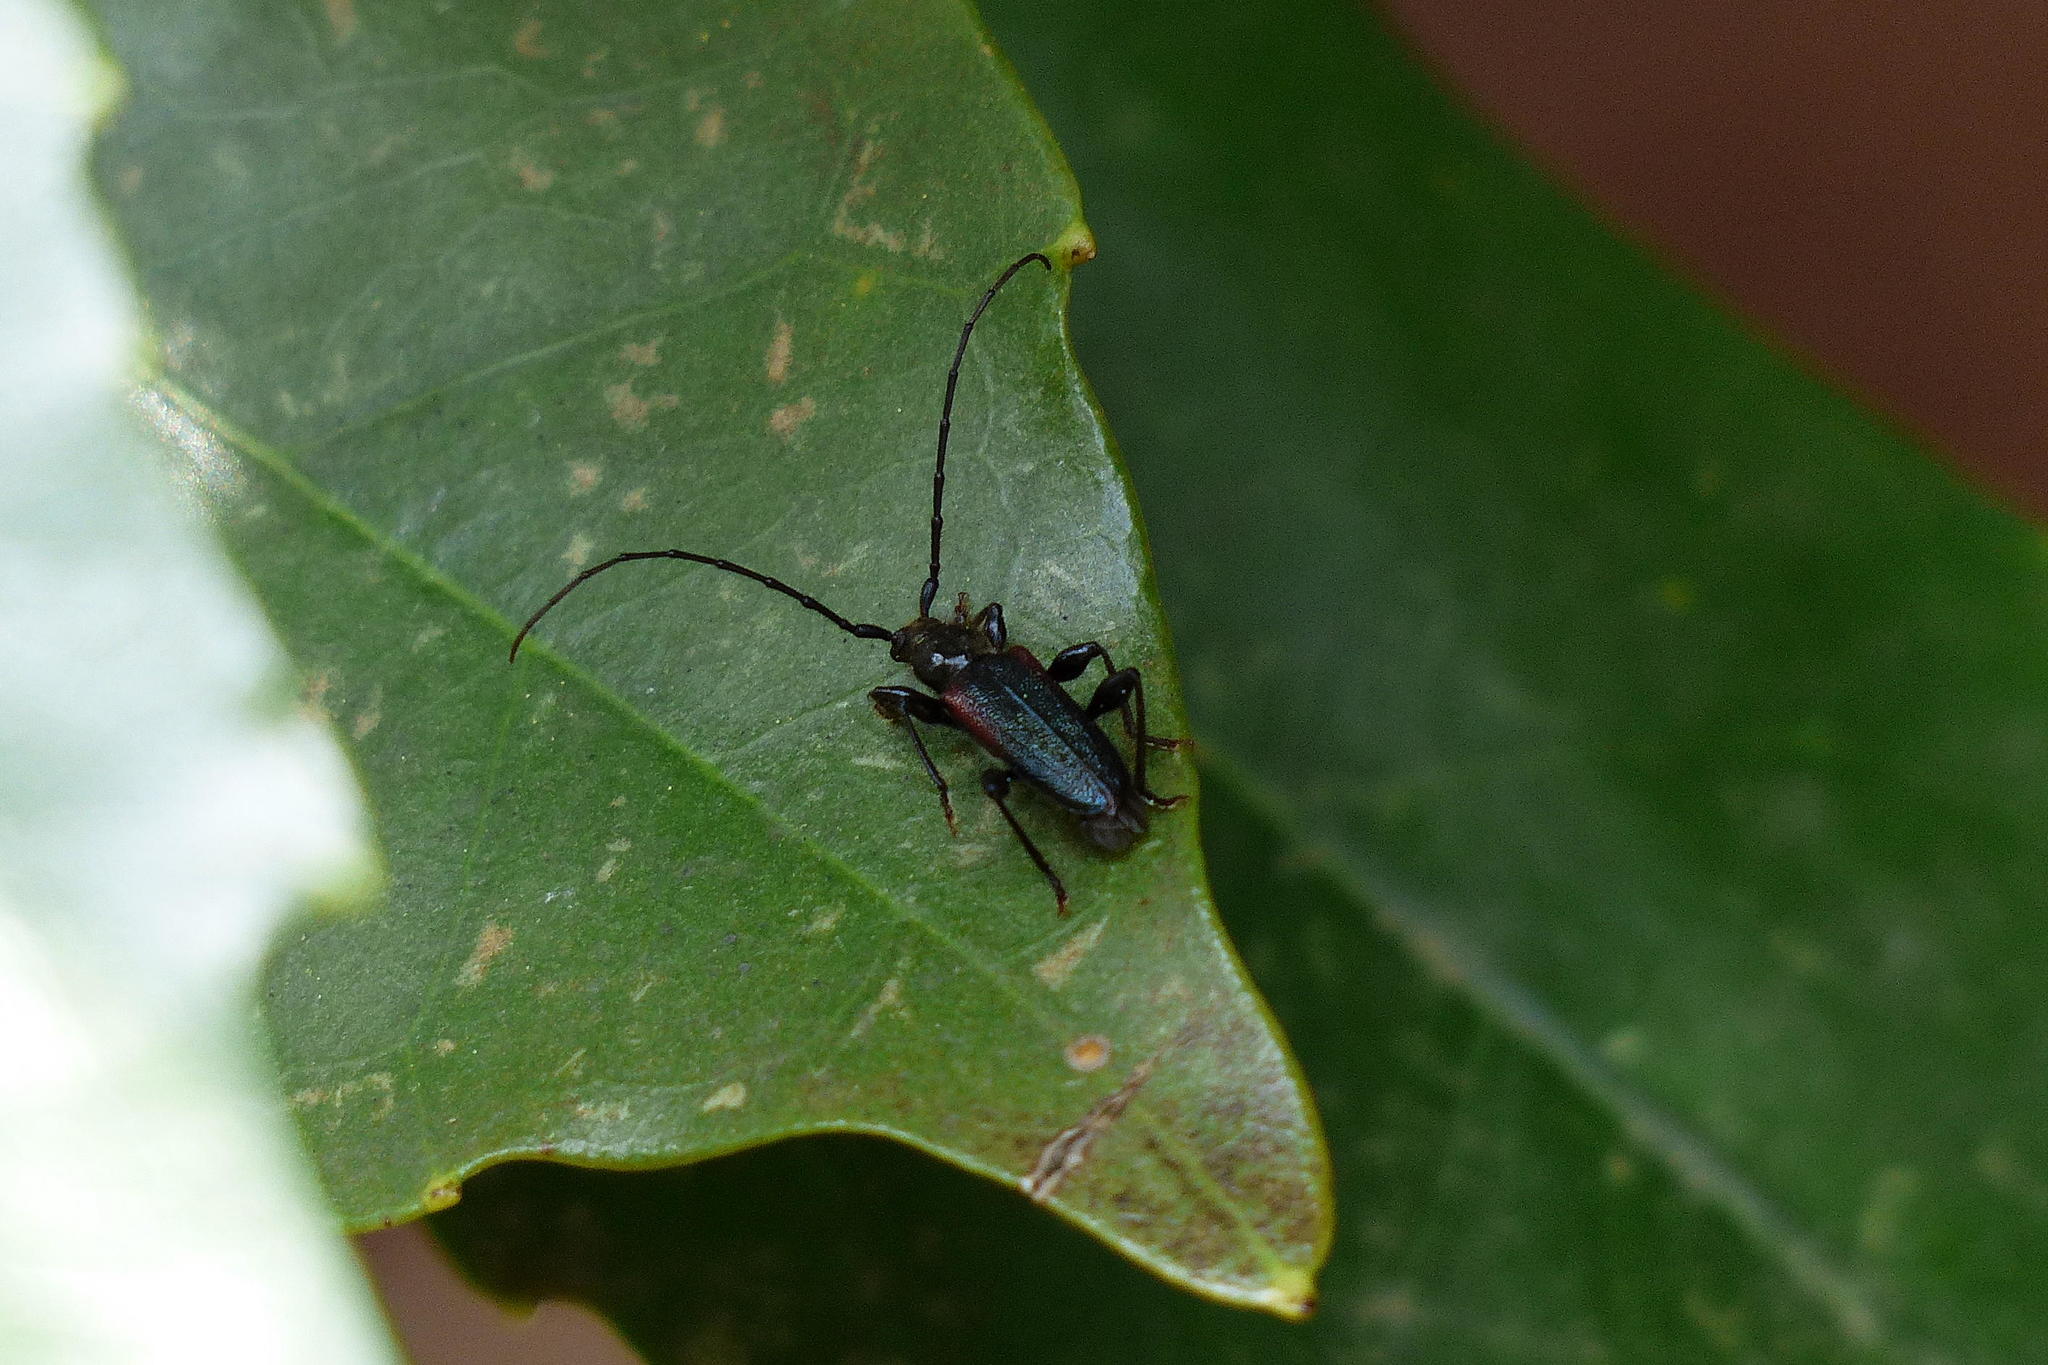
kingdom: Animalia
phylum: Arthropoda
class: Insecta
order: Coleoptera
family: Cerambycidae
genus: Callidiellum
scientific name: Callidiellum rufipennis
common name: Longhorn beetle
